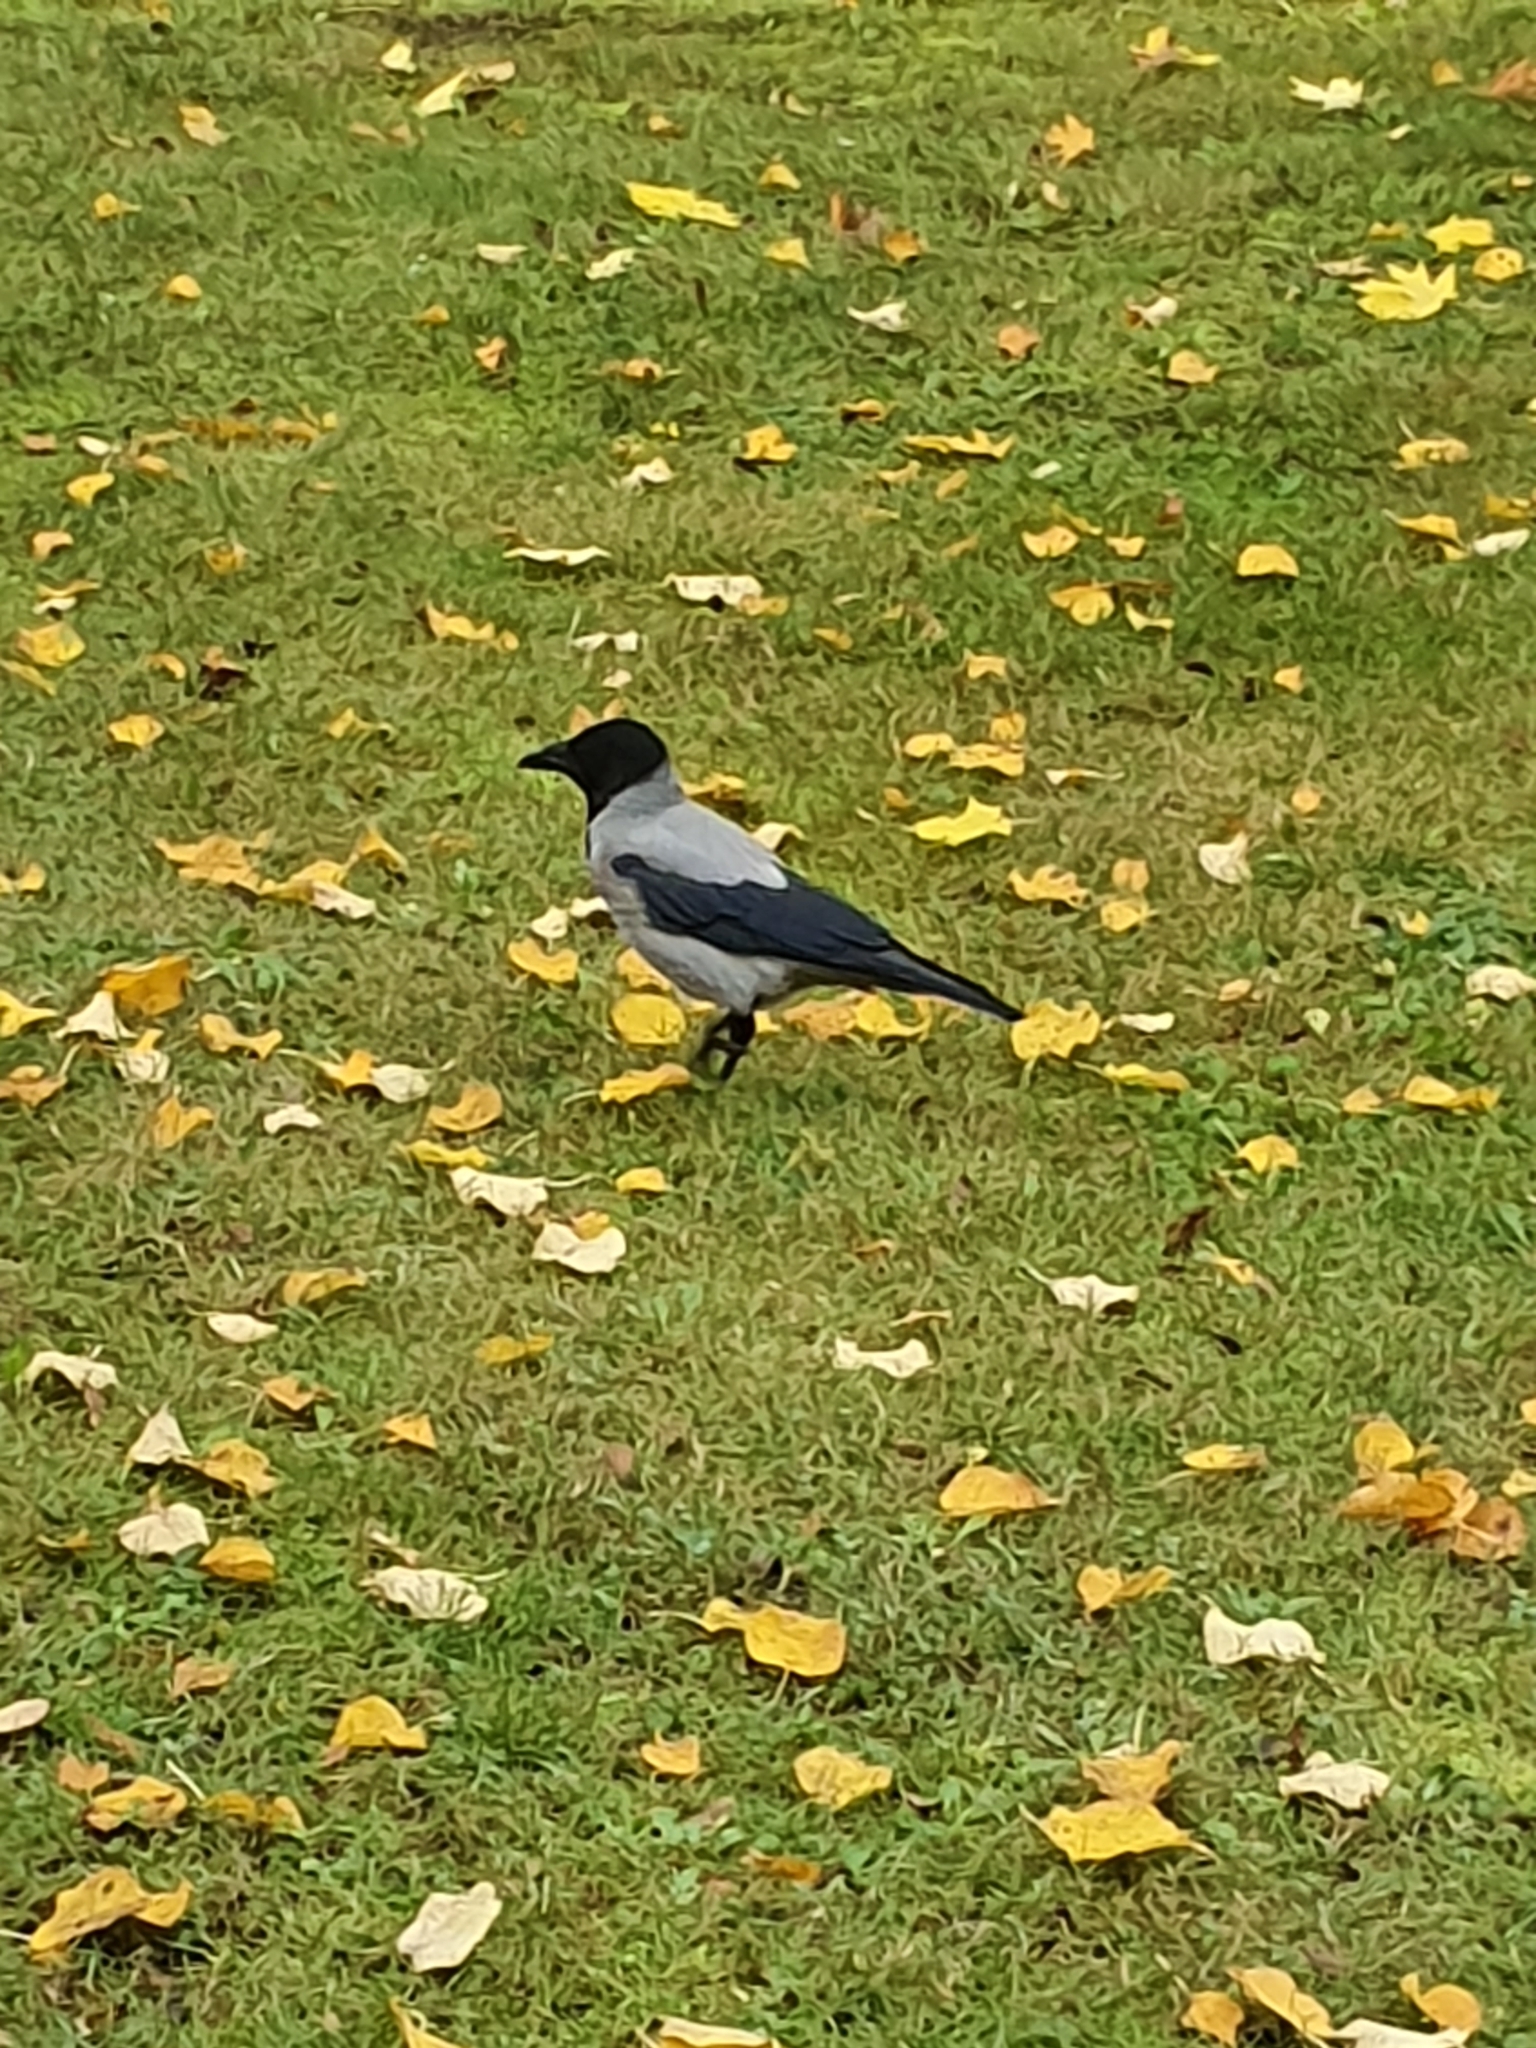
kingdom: Animalia
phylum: Chordata
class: Aves
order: Passeriformes
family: Corvidae
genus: Corvus
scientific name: Corvus cornix
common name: Hooded crow
